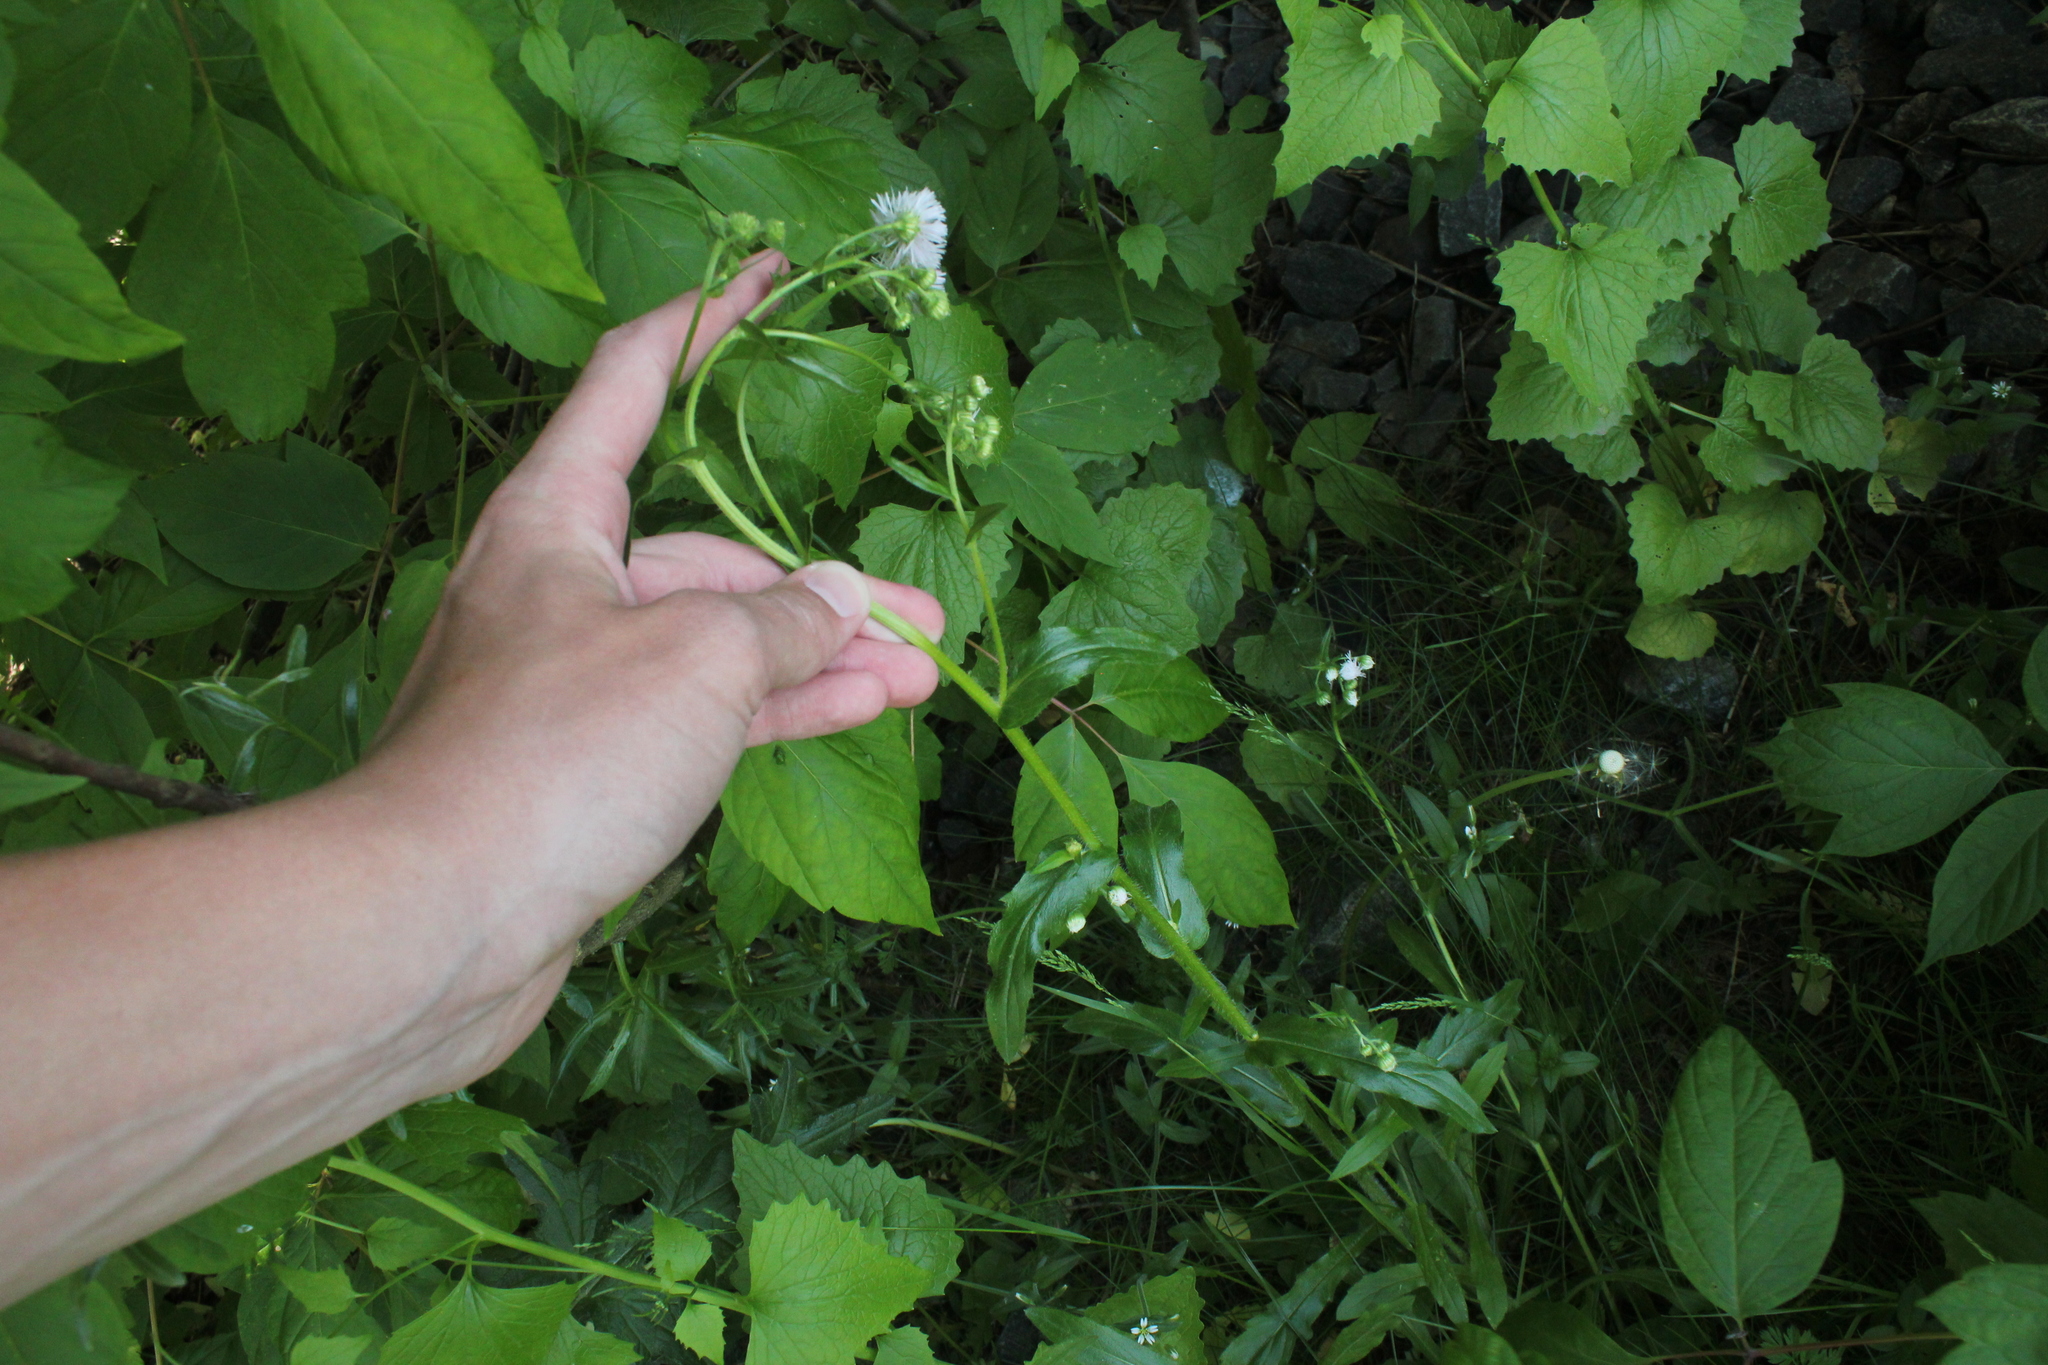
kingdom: Plantae
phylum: Tracheophyta
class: Magnoliopsida
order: Asterales
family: Asteraceae
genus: Erigeron
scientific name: Erigeron philadelphicus
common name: Robin's-plantain
